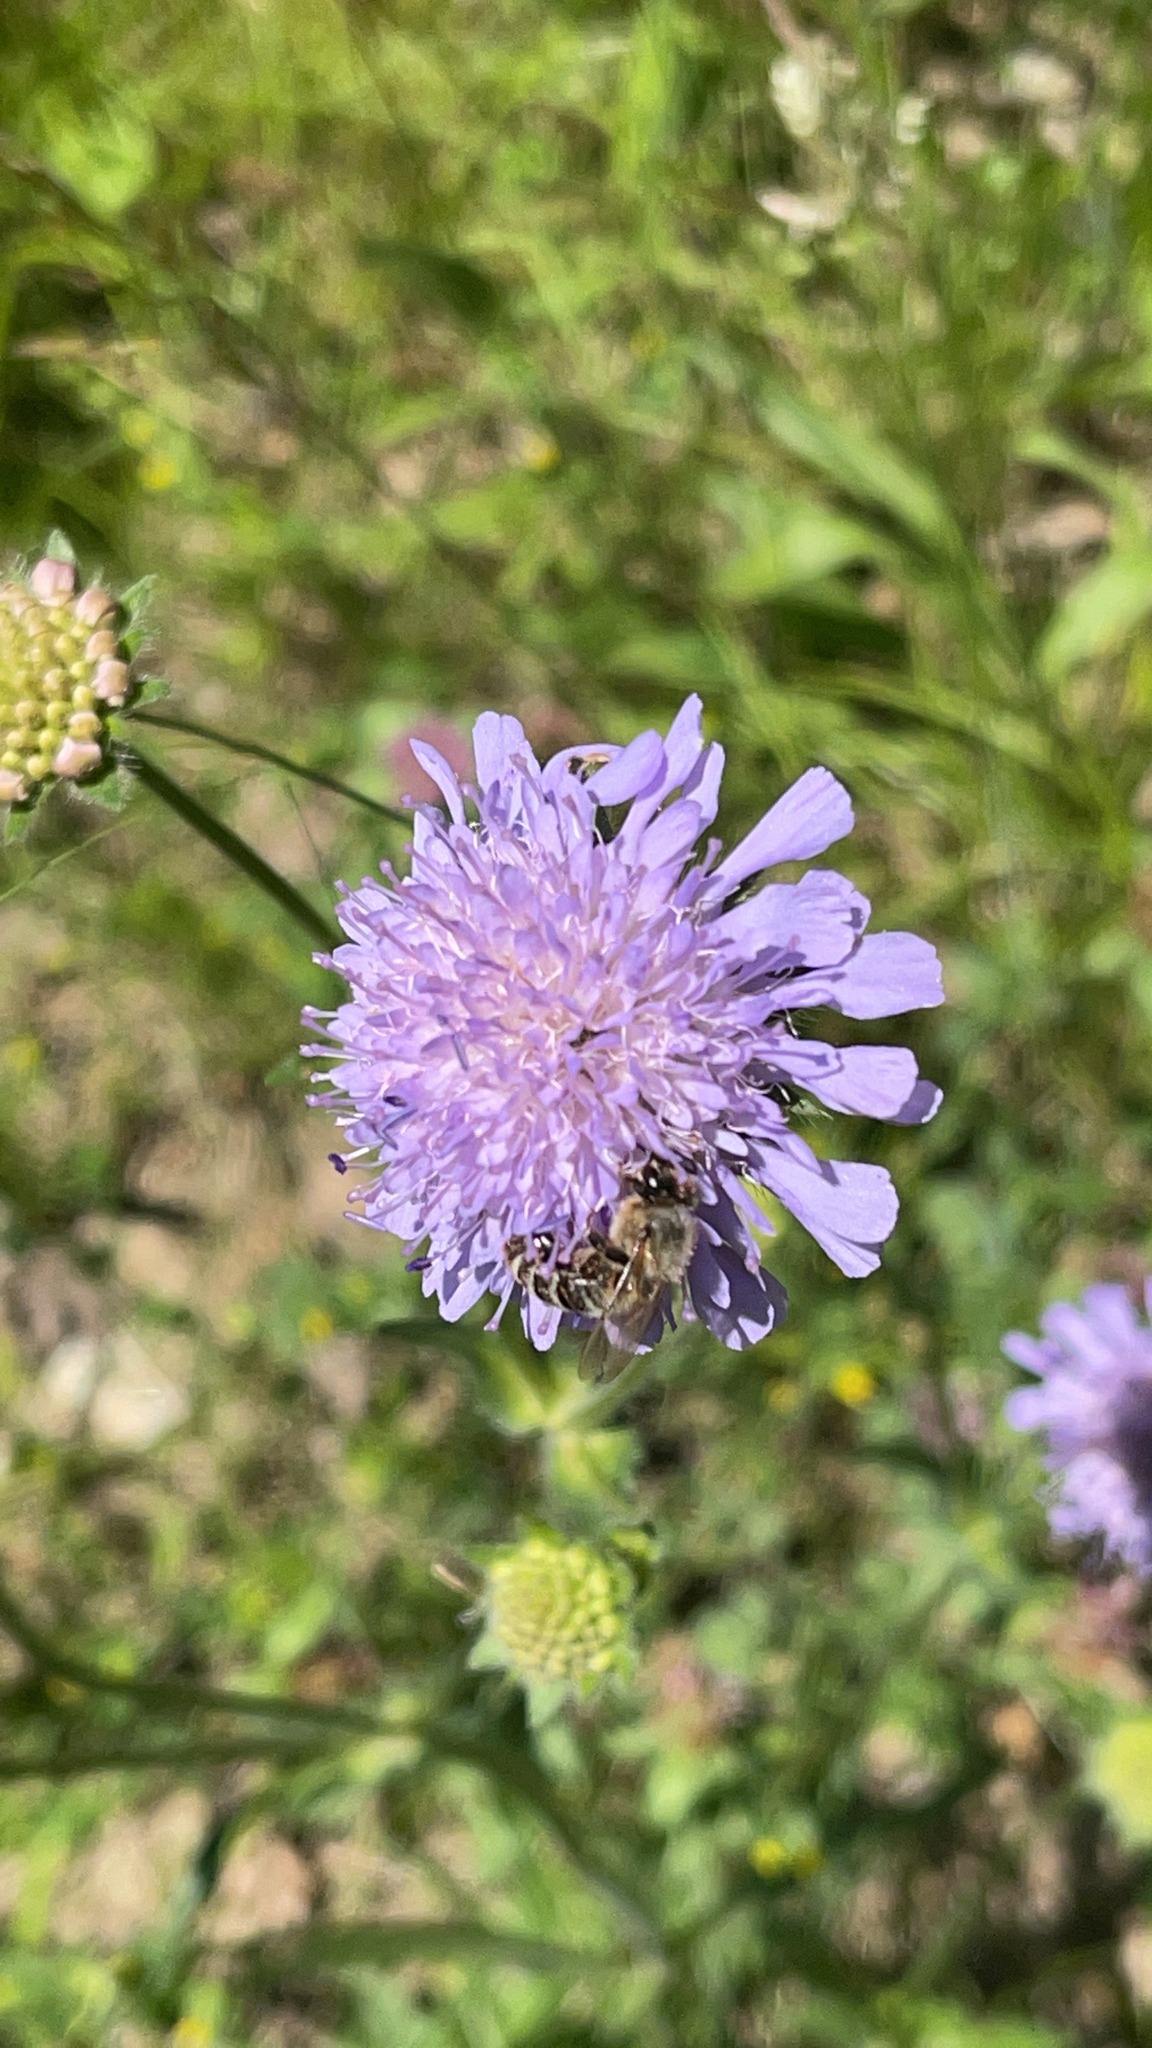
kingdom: Plantae
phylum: Tracheophyta
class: Magnoliopsida
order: Dipsacales
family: Caprifoliaceae
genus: Knautia
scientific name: Knautia arvensis
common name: Field scabiosa
